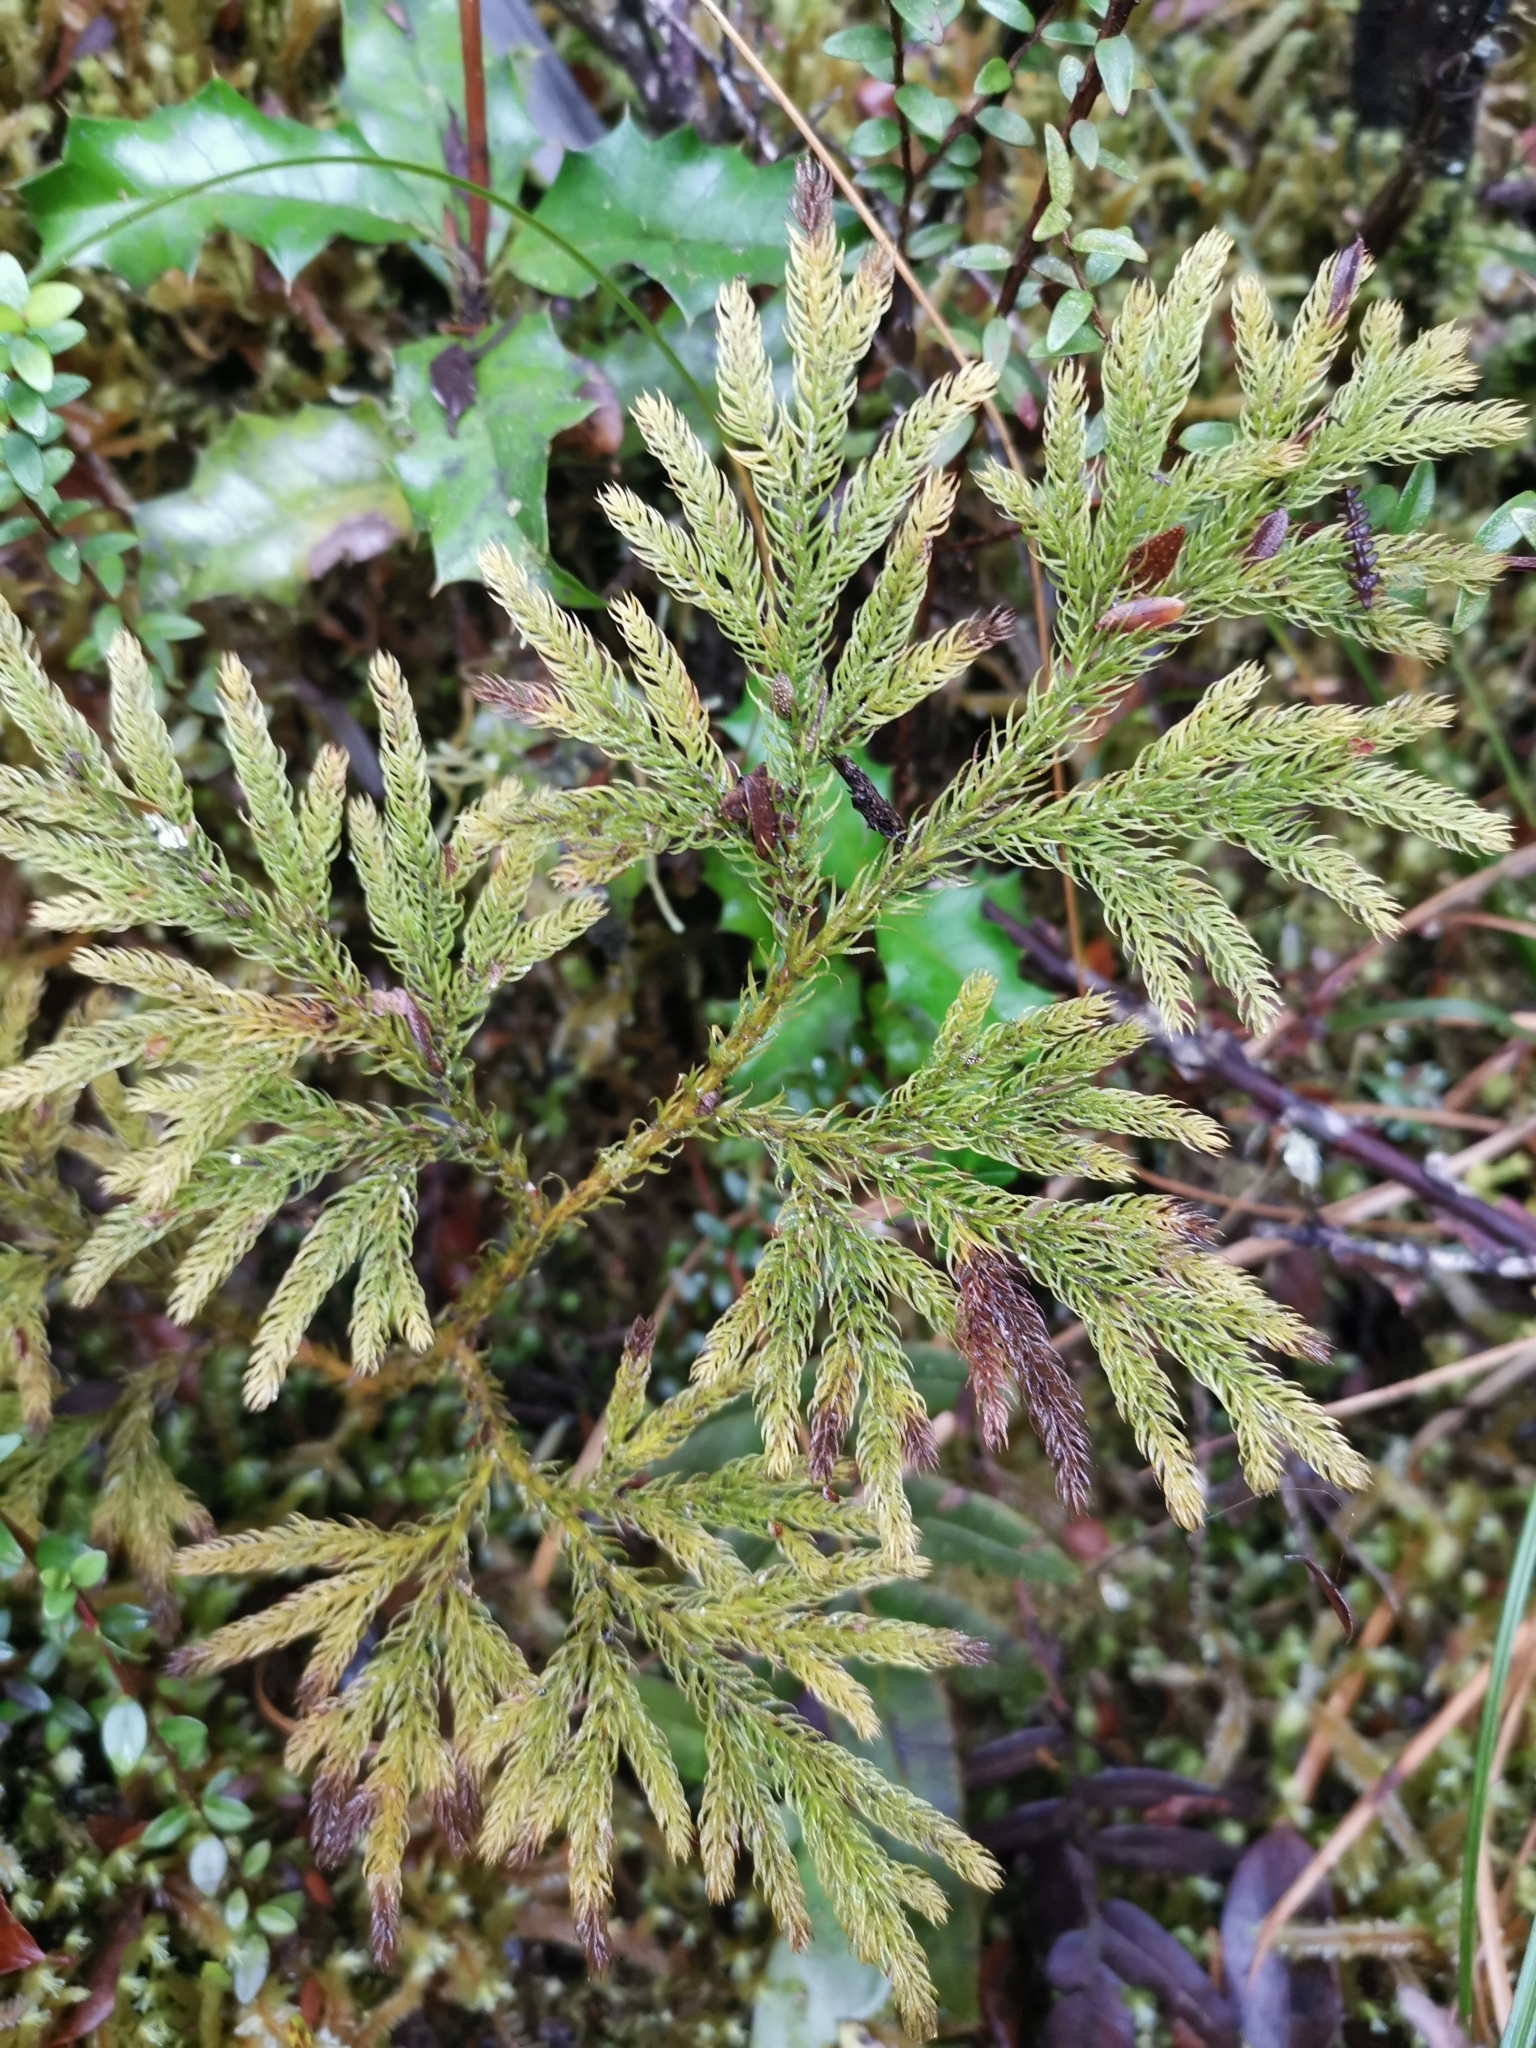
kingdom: Plantae
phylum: Tracheophyta
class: Lycopodiopsida
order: Lycopodiales
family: Lycopodiaceae
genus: Austrolycopodium
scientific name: Austrolycopodium paniculatum
